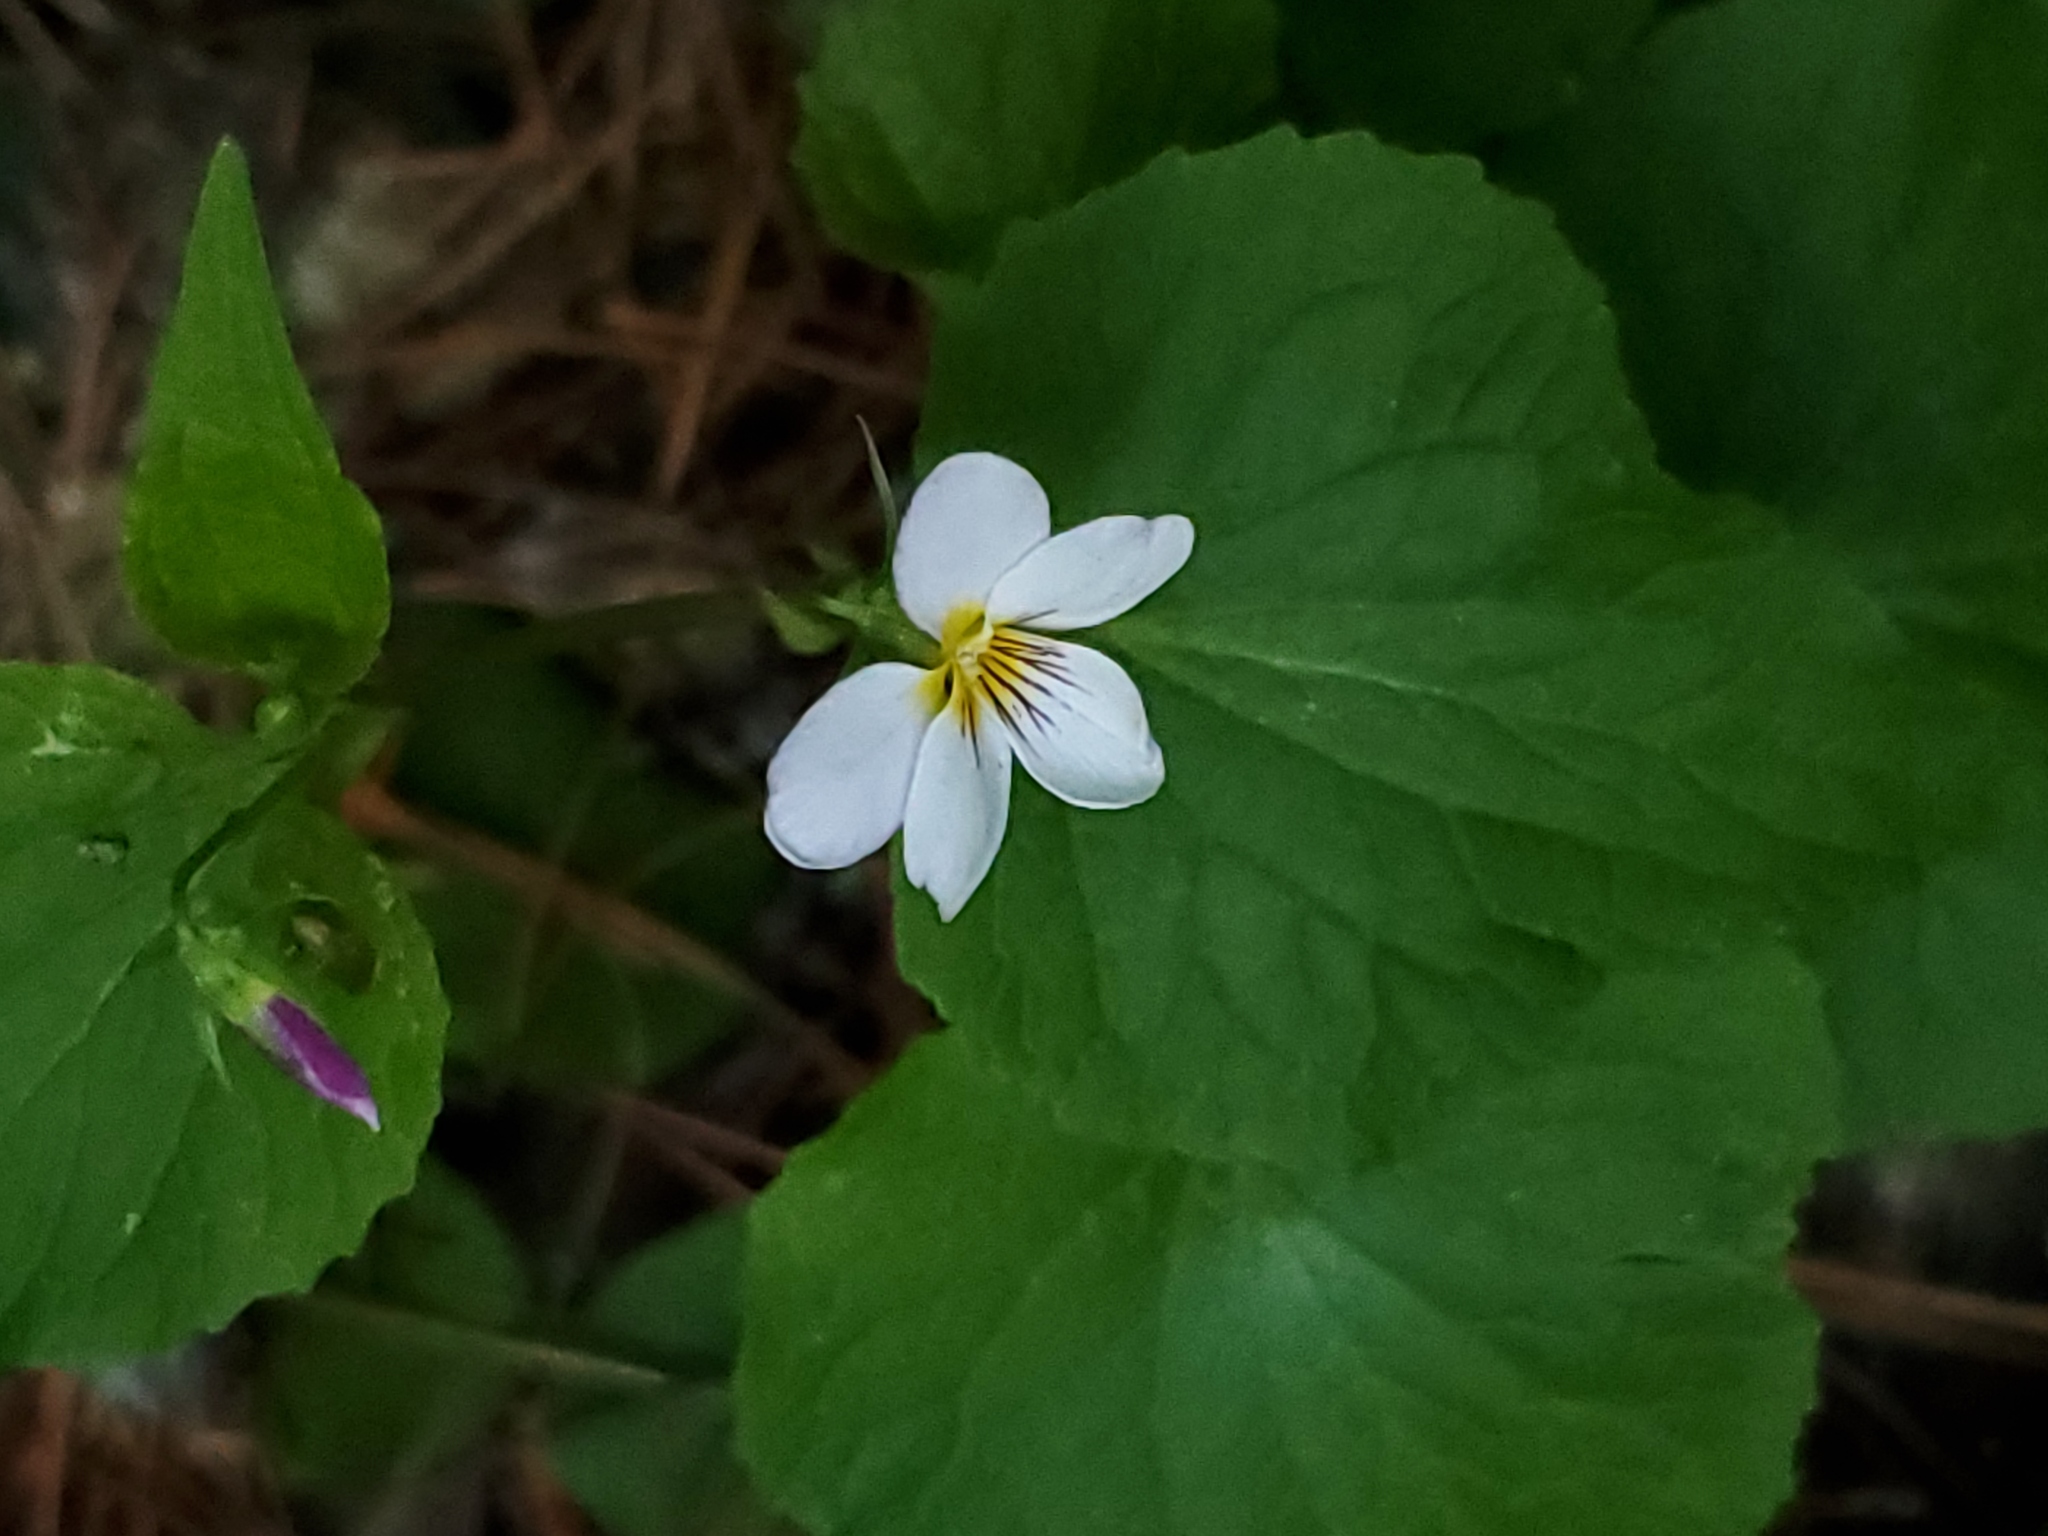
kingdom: Plantae
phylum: Tracheophyta
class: Magnoliopsida
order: Malpighiales
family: Violaceae
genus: Viola
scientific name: Viola canadensis
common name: Canada violet
